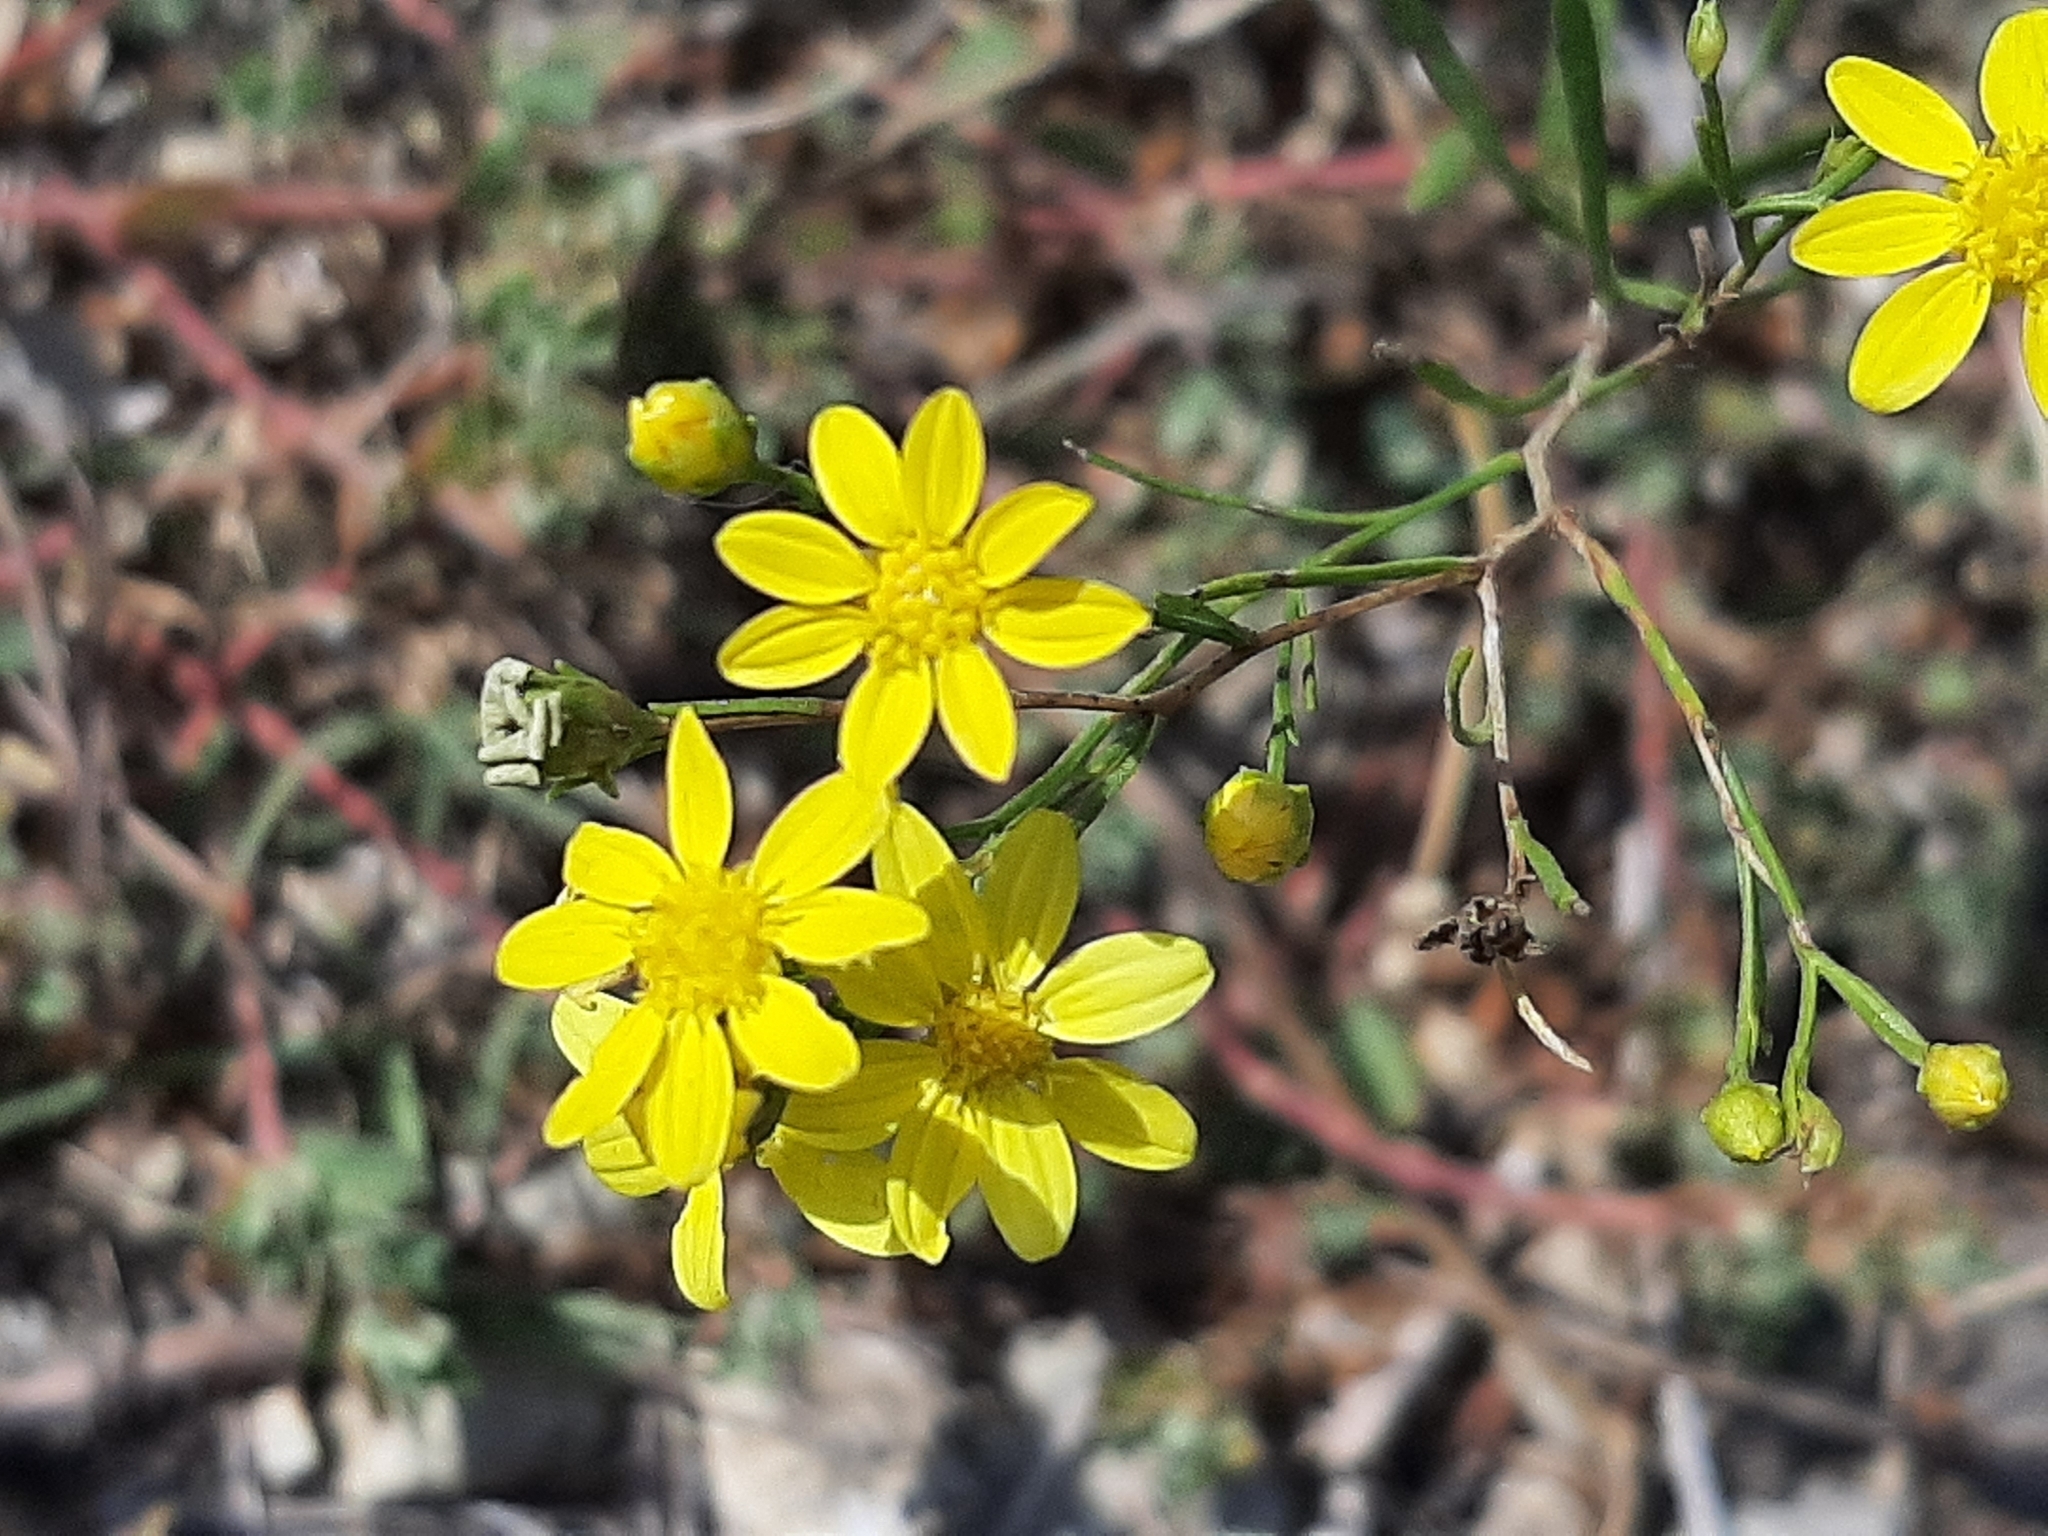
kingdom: Plantae
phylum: Tracheophyta
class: Magnoliopsida
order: Asterales
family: Asteraceae
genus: Amphiachyris
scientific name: Amphiachyris dracunculoides
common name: Broomweed
